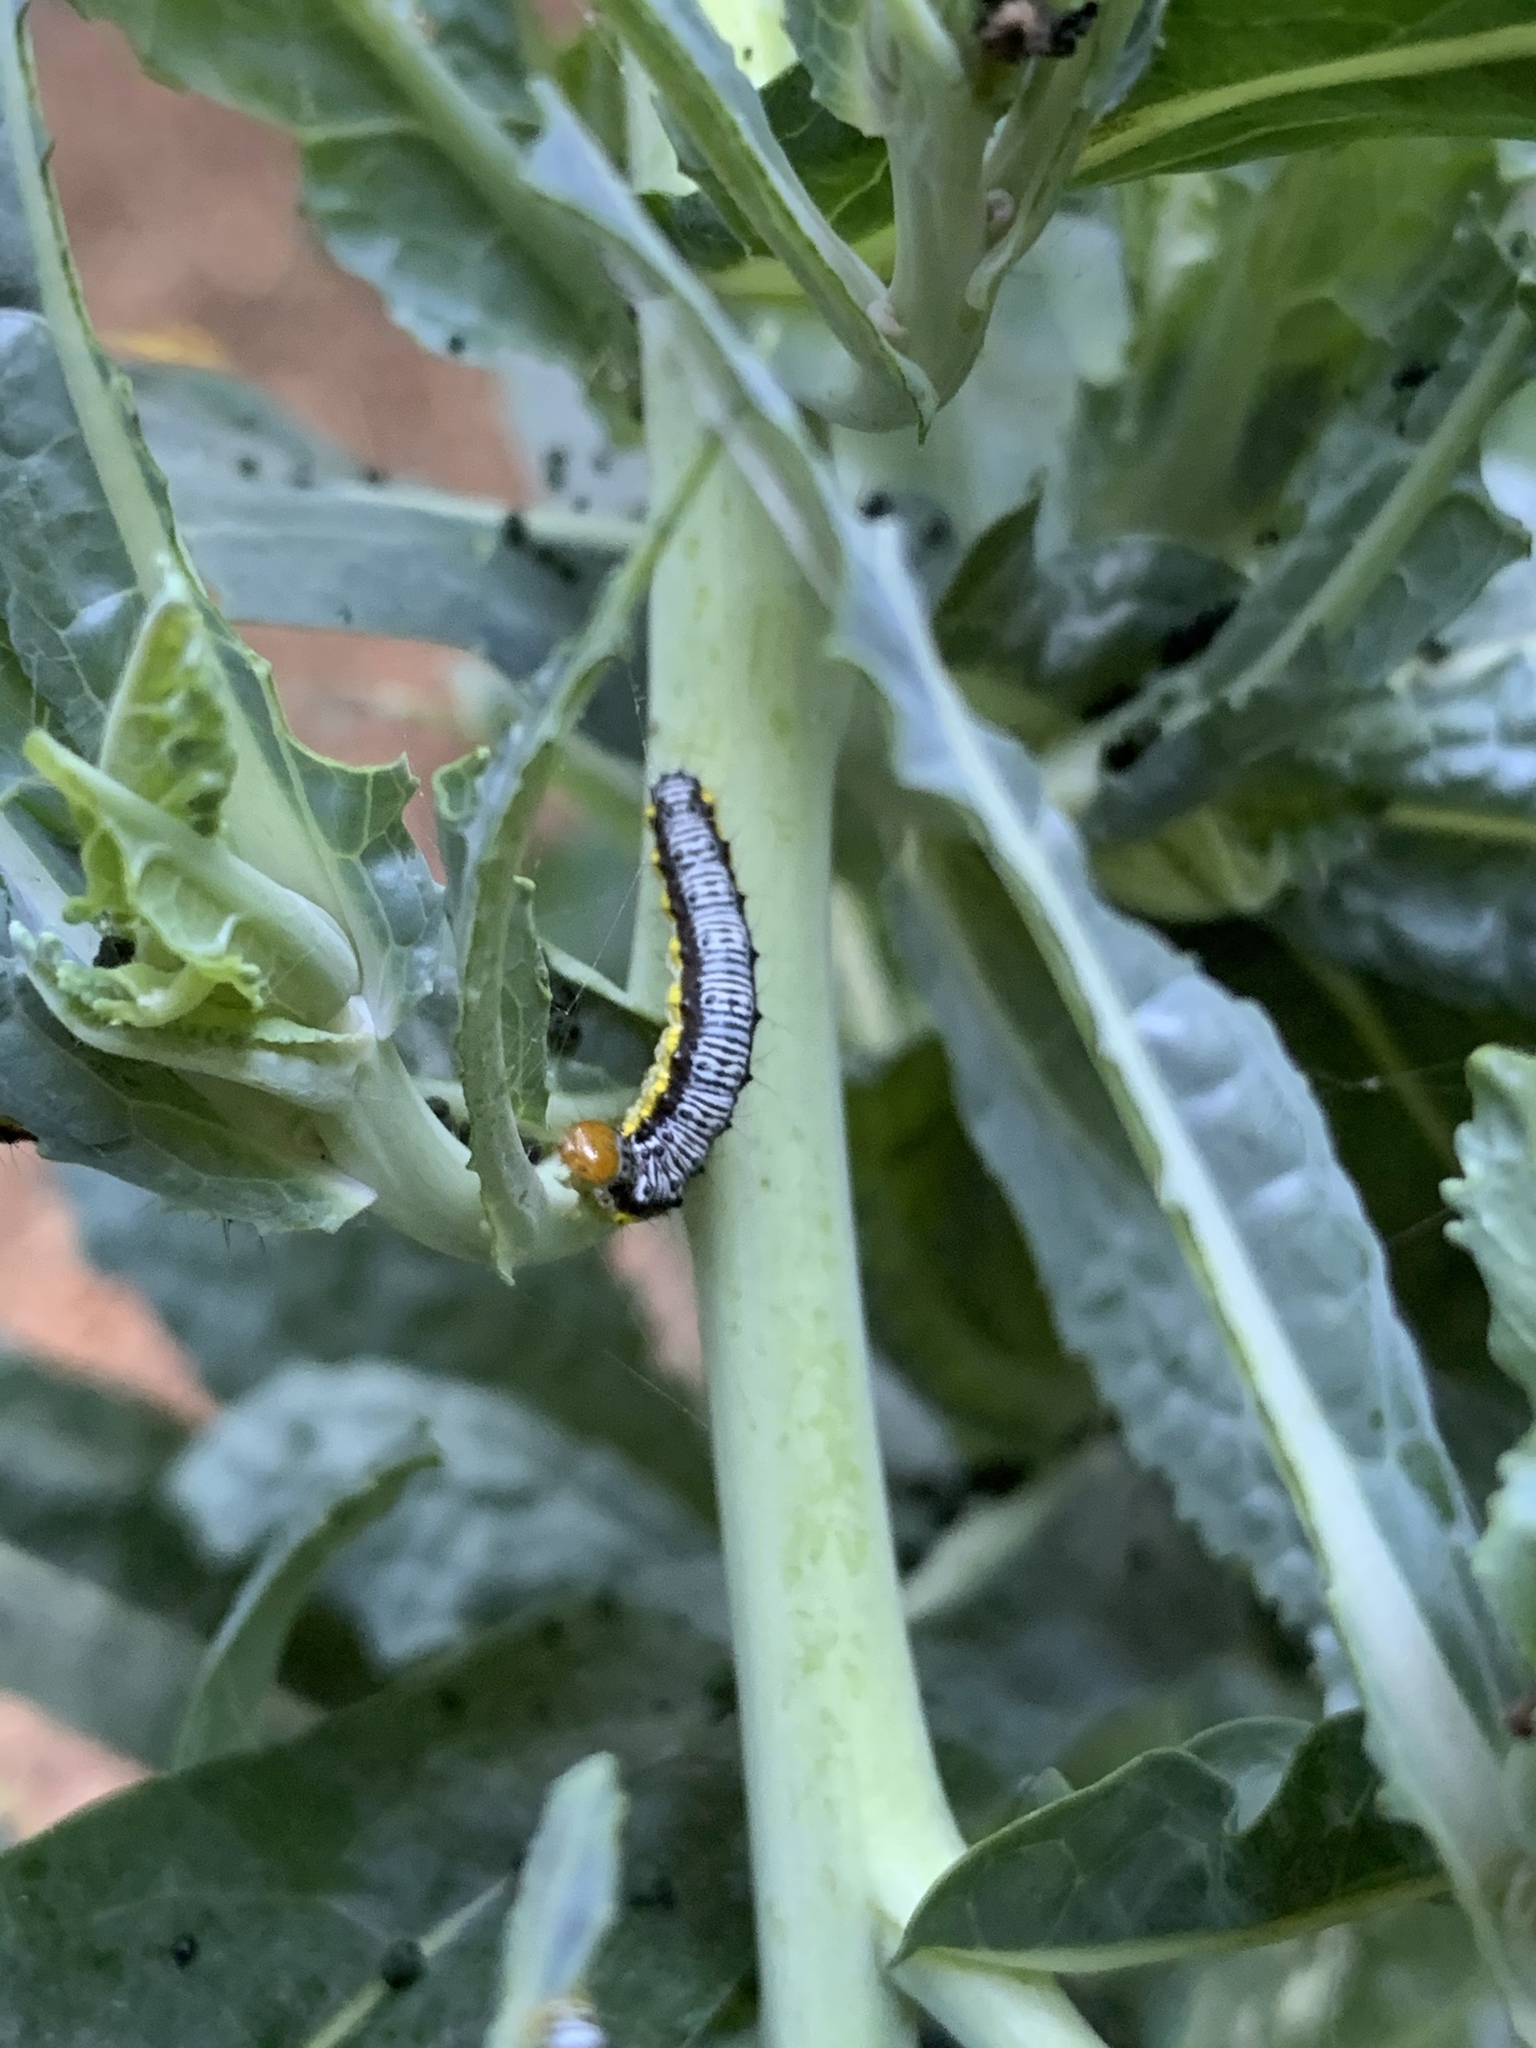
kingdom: Animalia
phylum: Arthropoda
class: Insecta
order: Lepidoptera
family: Crambidae
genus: Evergestis
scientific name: Evergestis rimosalis
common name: Cross-striped cabbageworm moth
